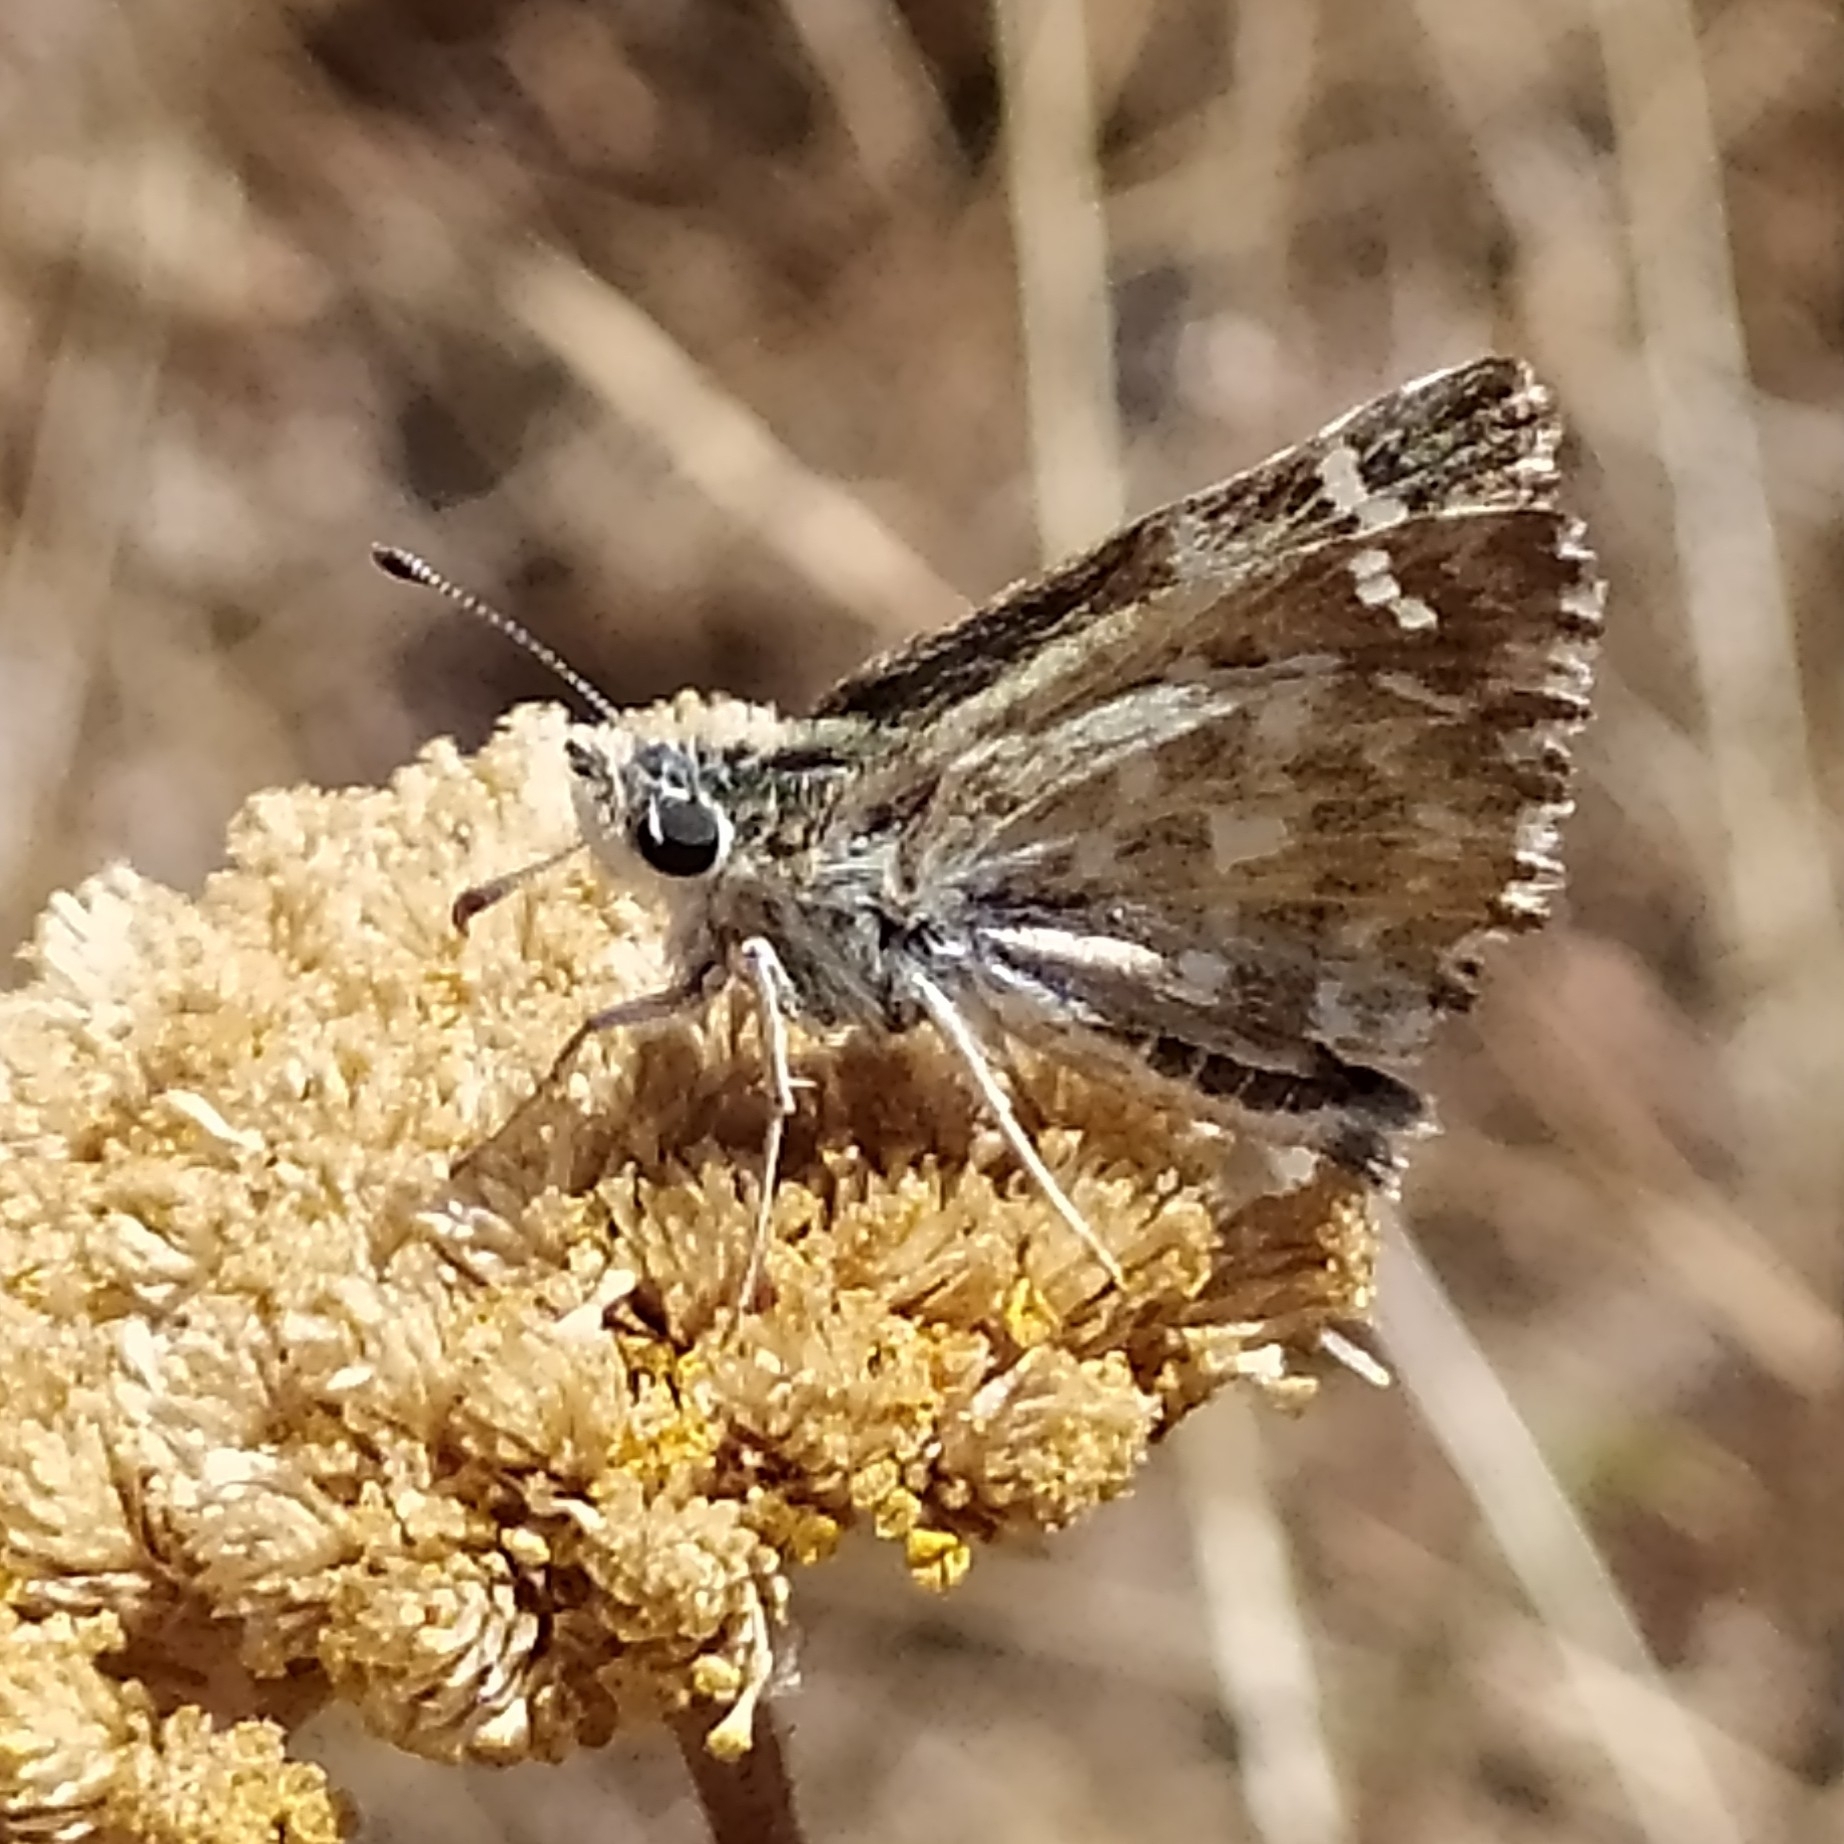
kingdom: Animalia
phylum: Arthropoda
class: Insecta
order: Lepidoptera
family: Hesperiidae
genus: Carcharodus
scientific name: Carcharodus alceae
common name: Mallow skipper
